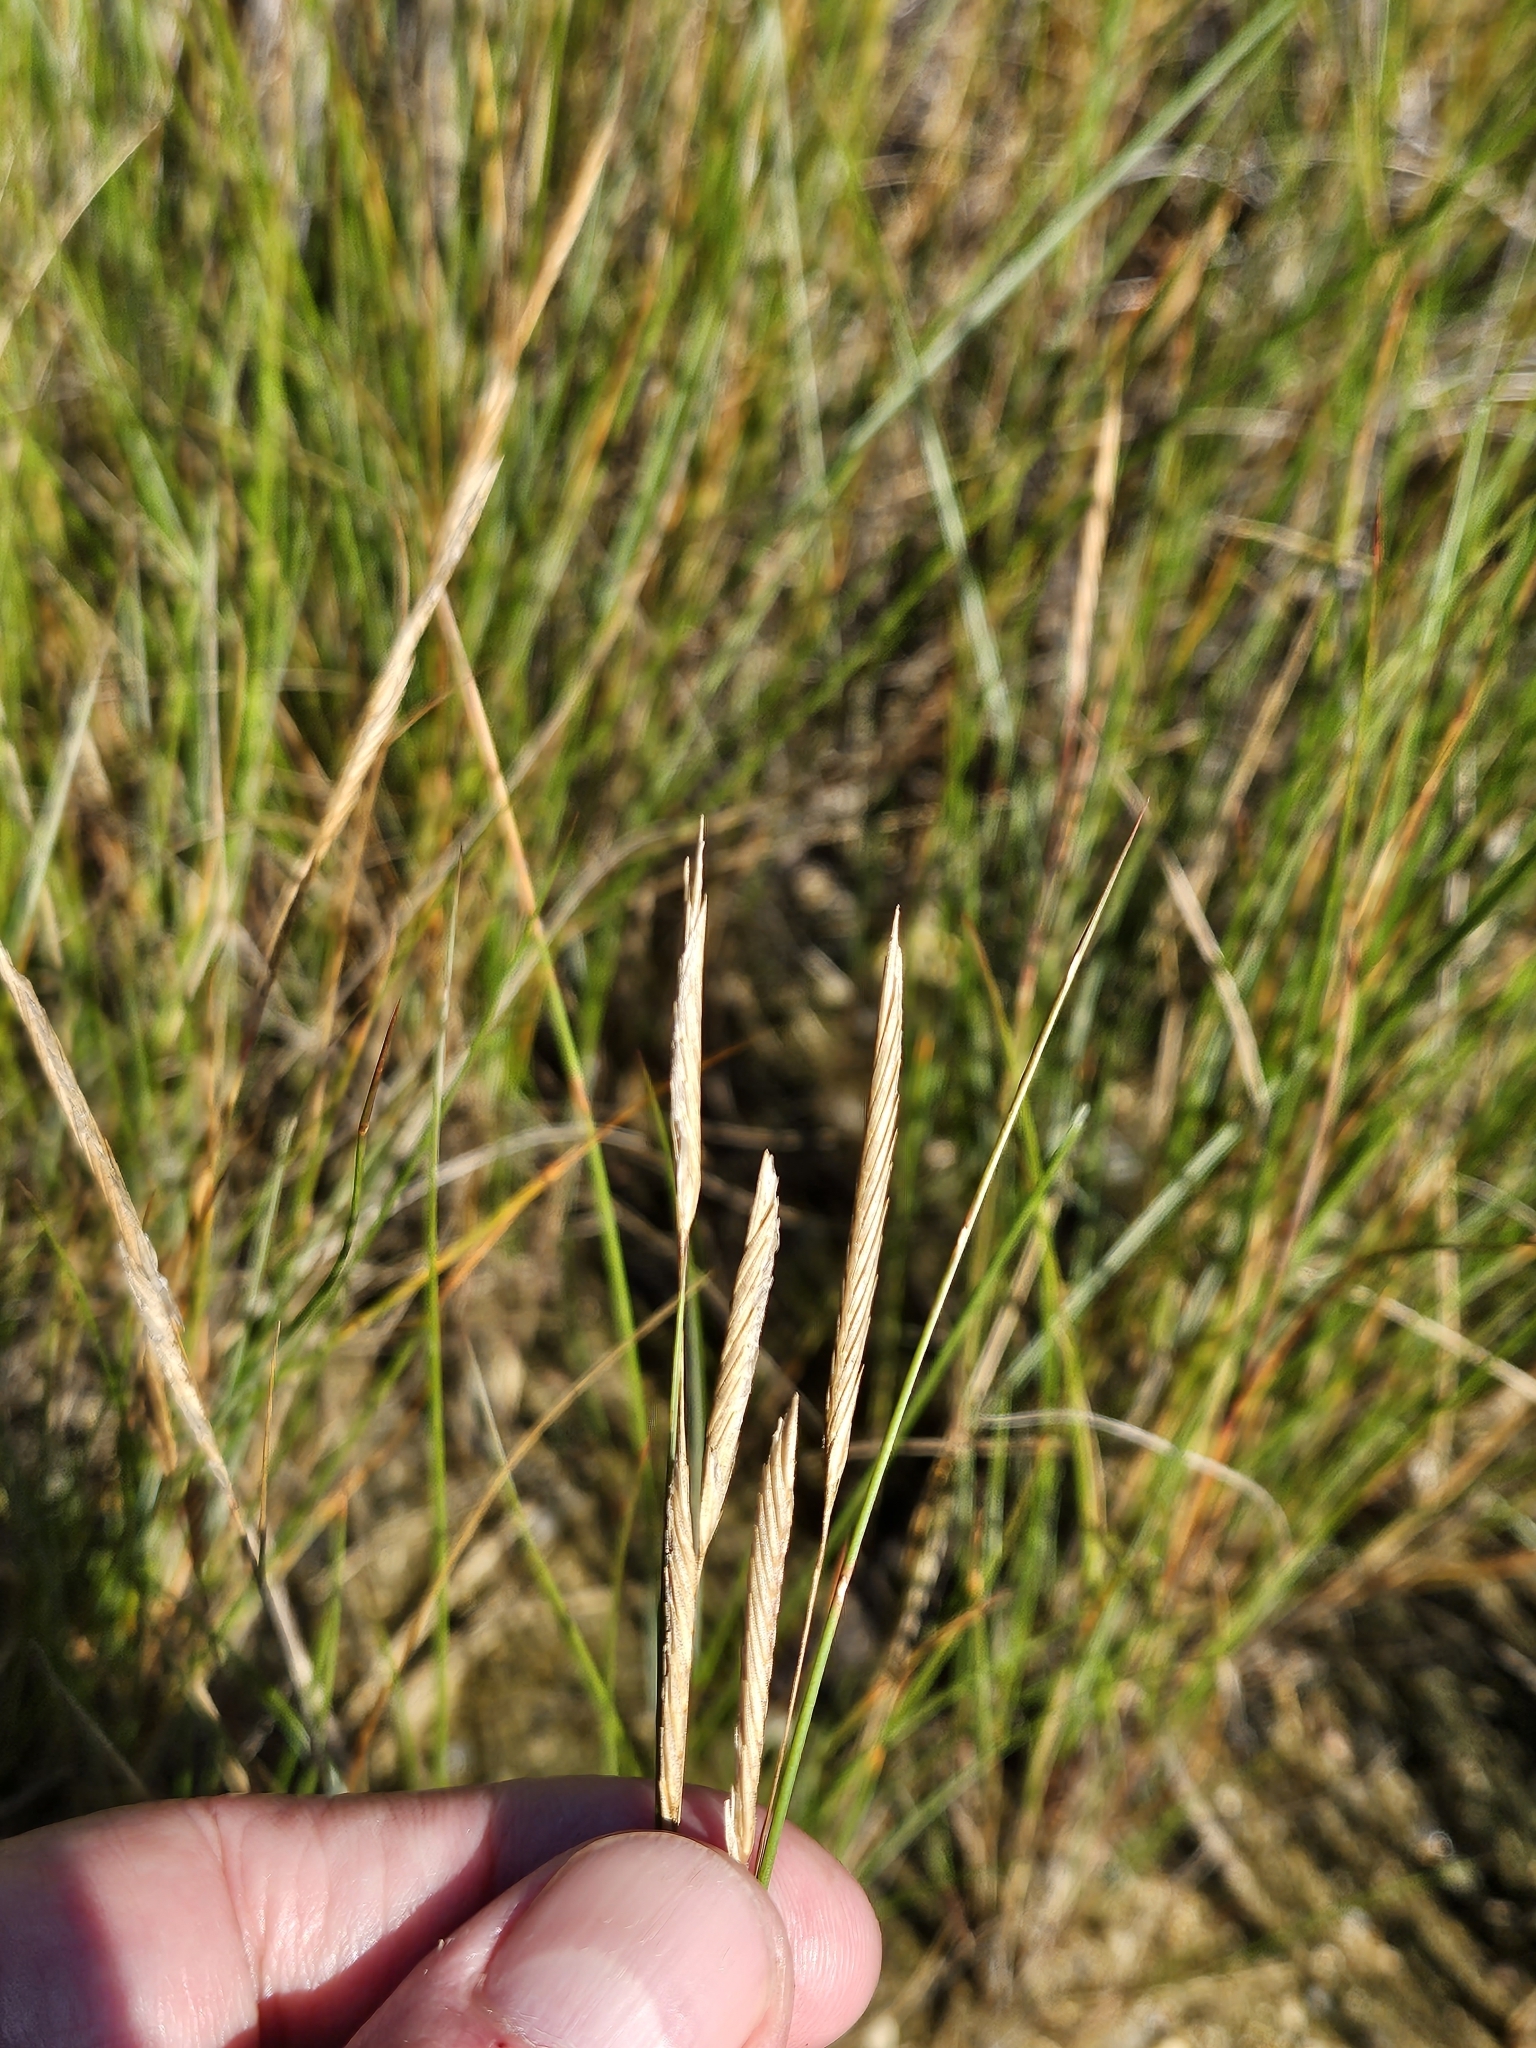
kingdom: Plantae
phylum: Tracheophyta
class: Liliopsida
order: Poales
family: Poaceae
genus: Sporobolus
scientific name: Sporobolus pumilus
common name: Highwater grass
